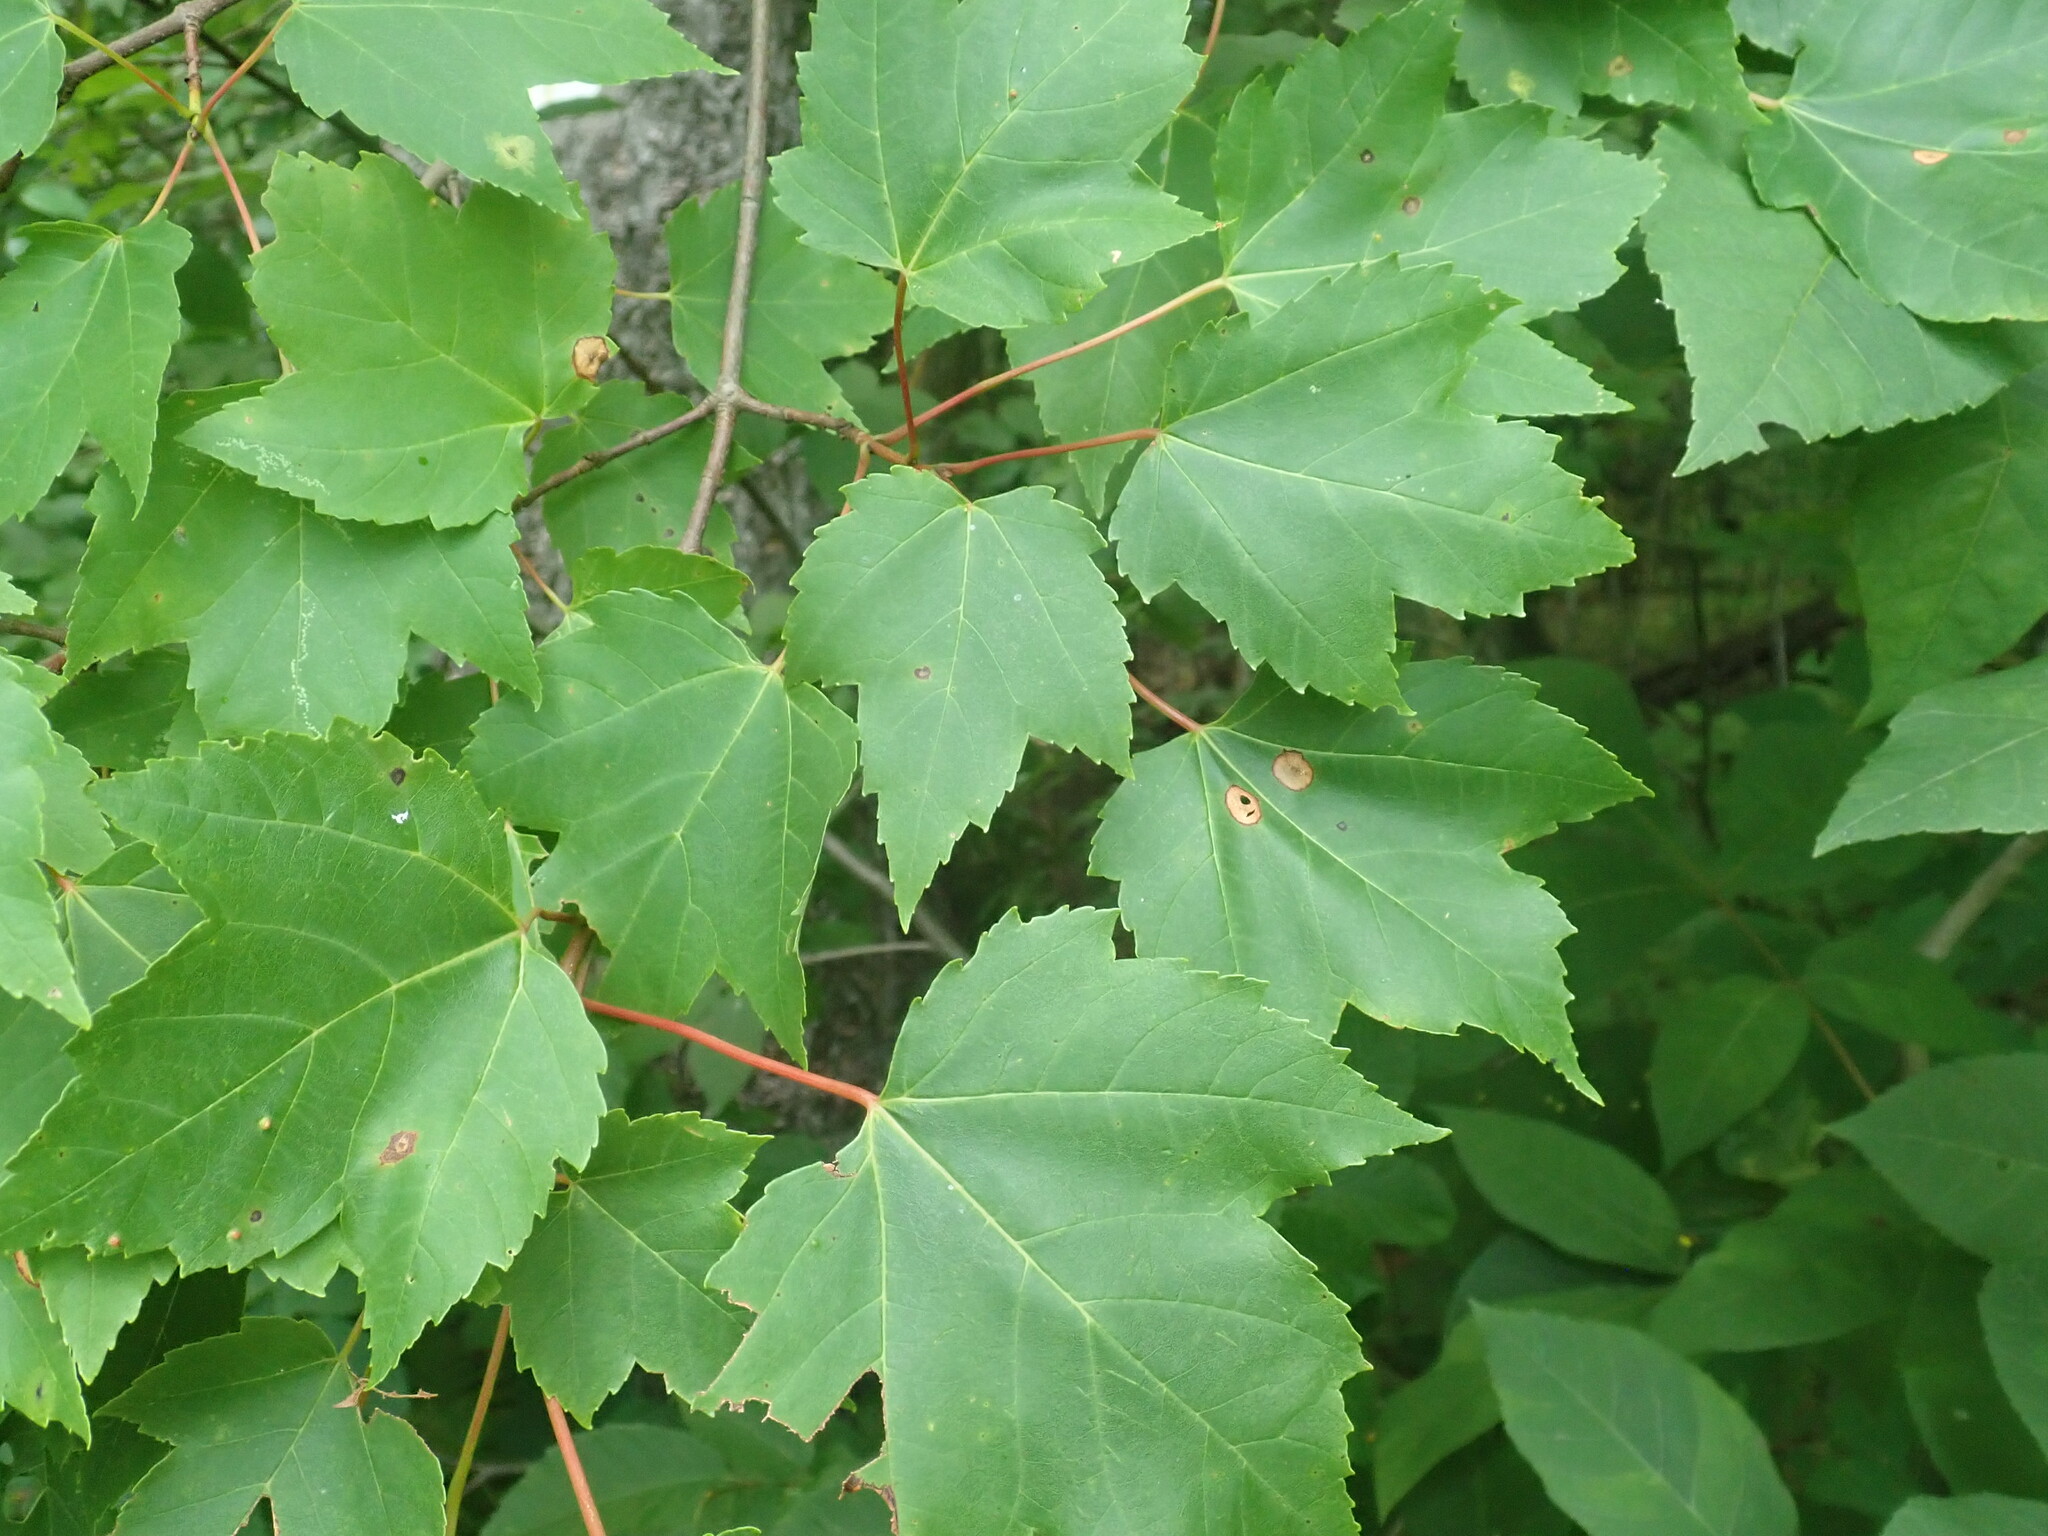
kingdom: Plantae
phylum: Tracheophyta
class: Magnoliopsida
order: Sapindales
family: Sapindaceae
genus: Acer
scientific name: Acer rubrum
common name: Red maple
